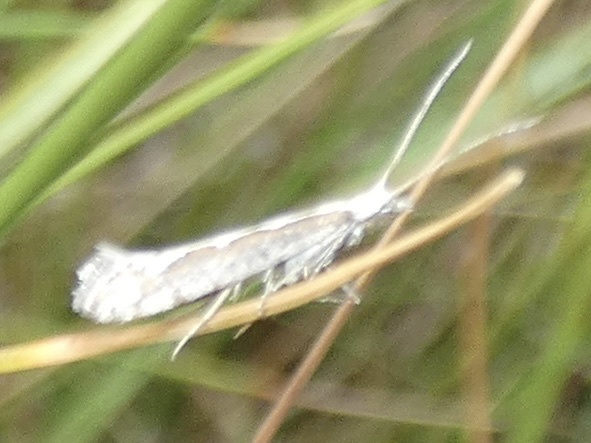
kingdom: Animalia
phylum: Arthropoda
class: Insecta
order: Lepidoptera
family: Plutellidae
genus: Plutella
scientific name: Plutella xylostella
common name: Diamond-back moth
